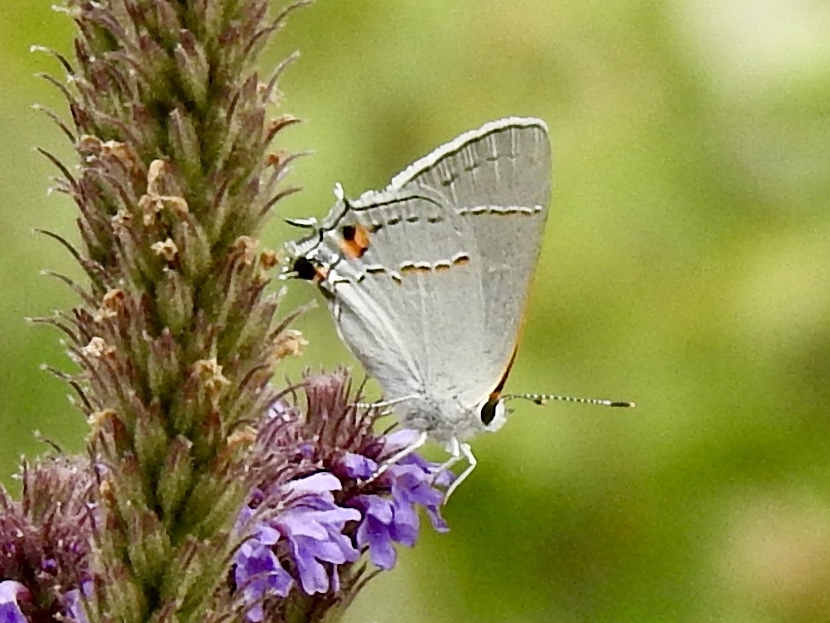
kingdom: Animalia
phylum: Arthropoda
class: Insecta
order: Lepidoptera
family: Lycaenidae
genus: Strymon
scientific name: Strymon melinus
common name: Gray hairstreak
